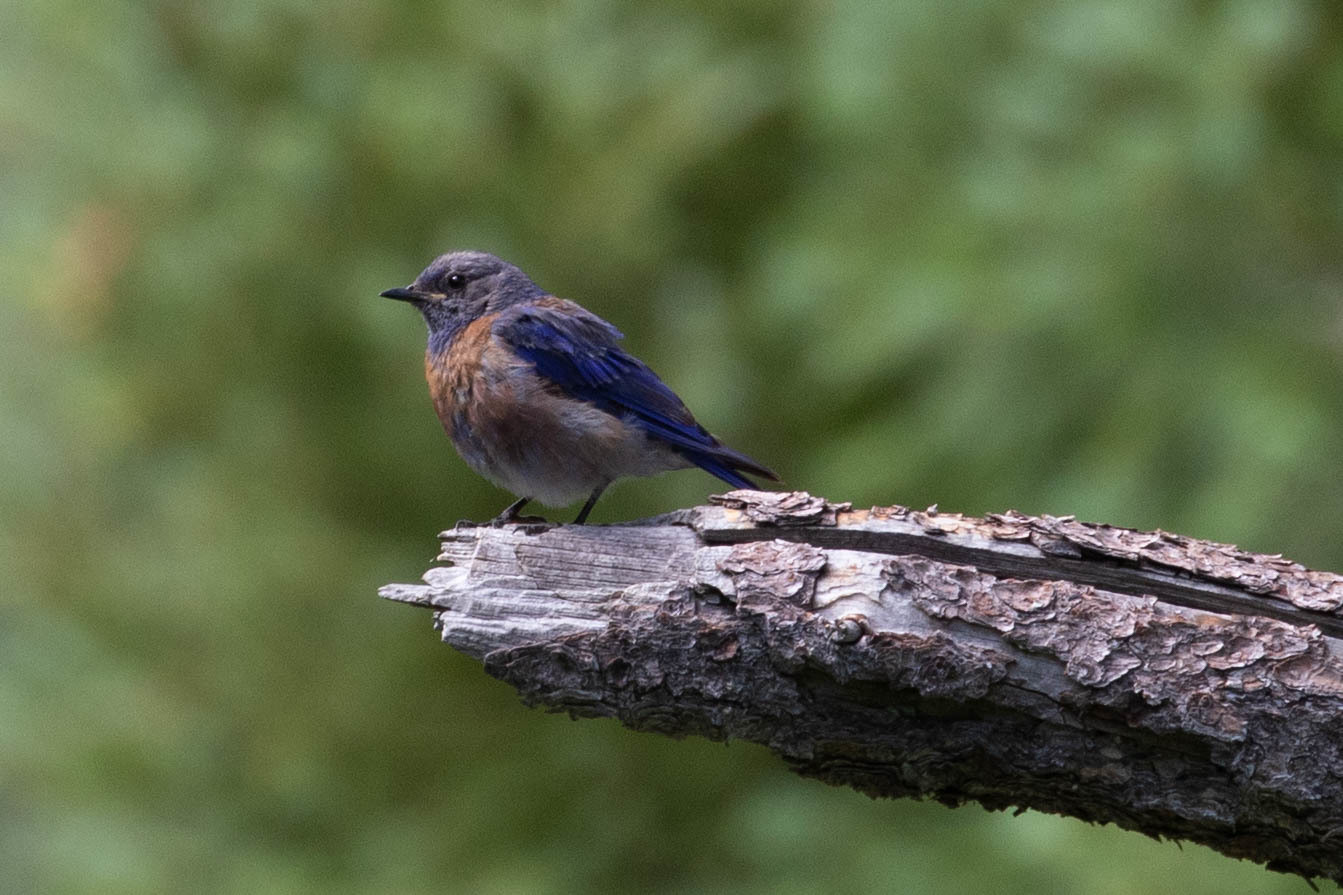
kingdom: Animalia
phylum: Chordata
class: Aves
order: Passeriformes
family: Turdidae
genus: Sialia
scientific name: Sialia mexicana
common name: Western bluebird
